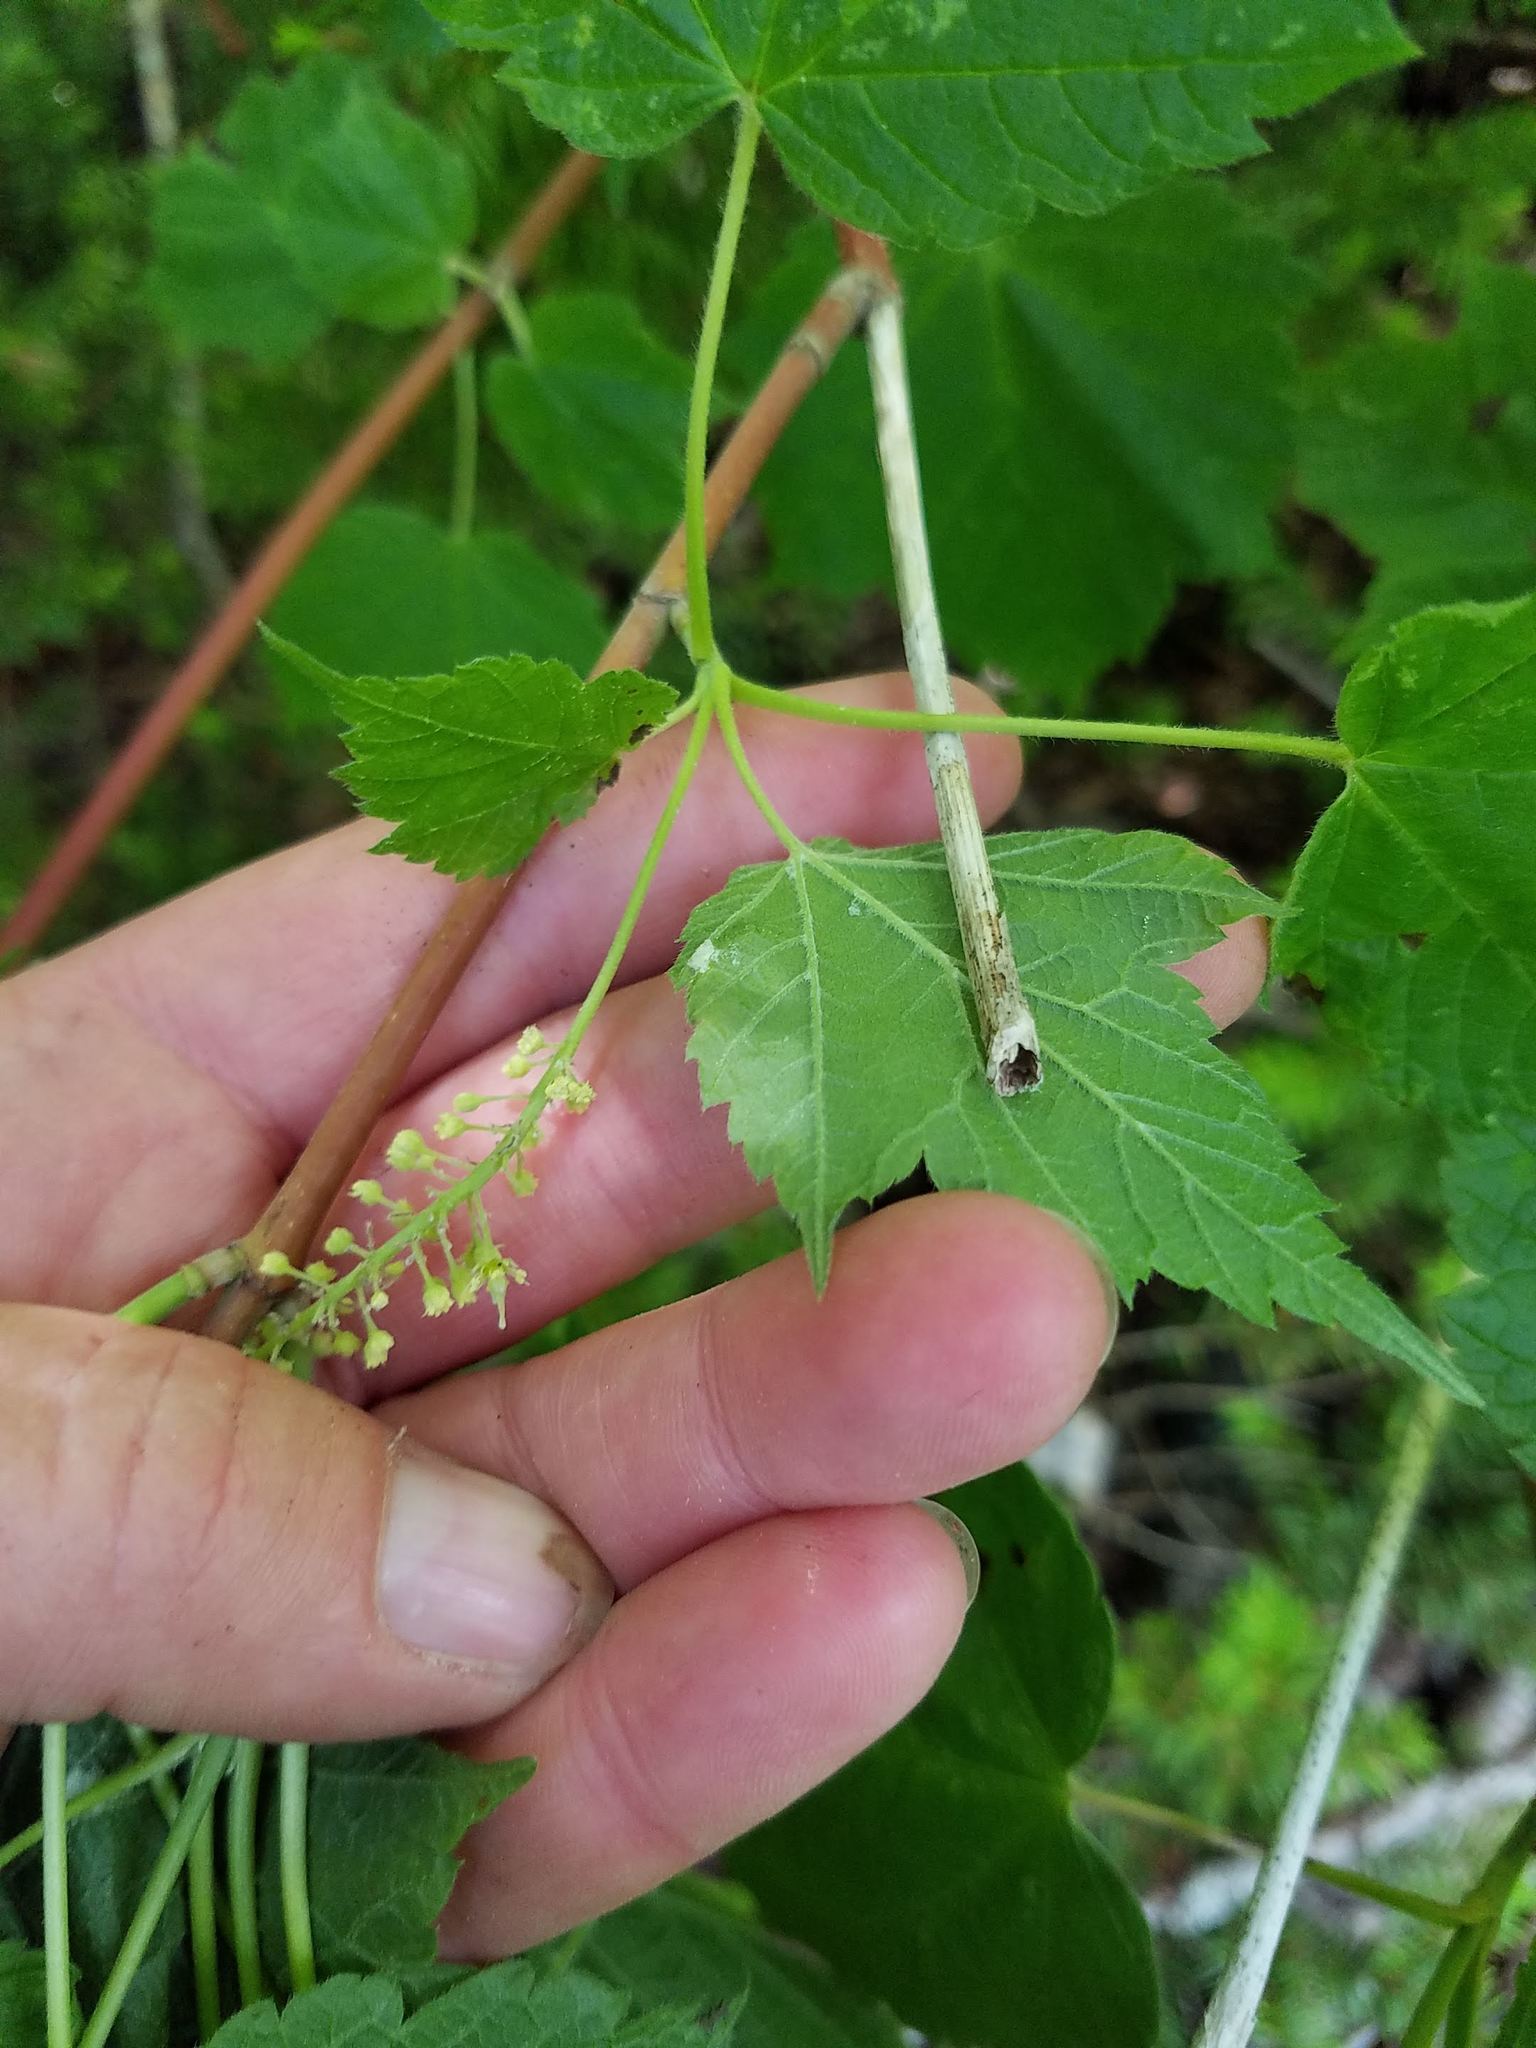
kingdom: Plantae
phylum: Tracheophyta
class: Magnoliopsida
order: Sapindales
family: Sapindaceae
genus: Acer
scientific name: Acer spicatum
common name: Mountain maple
